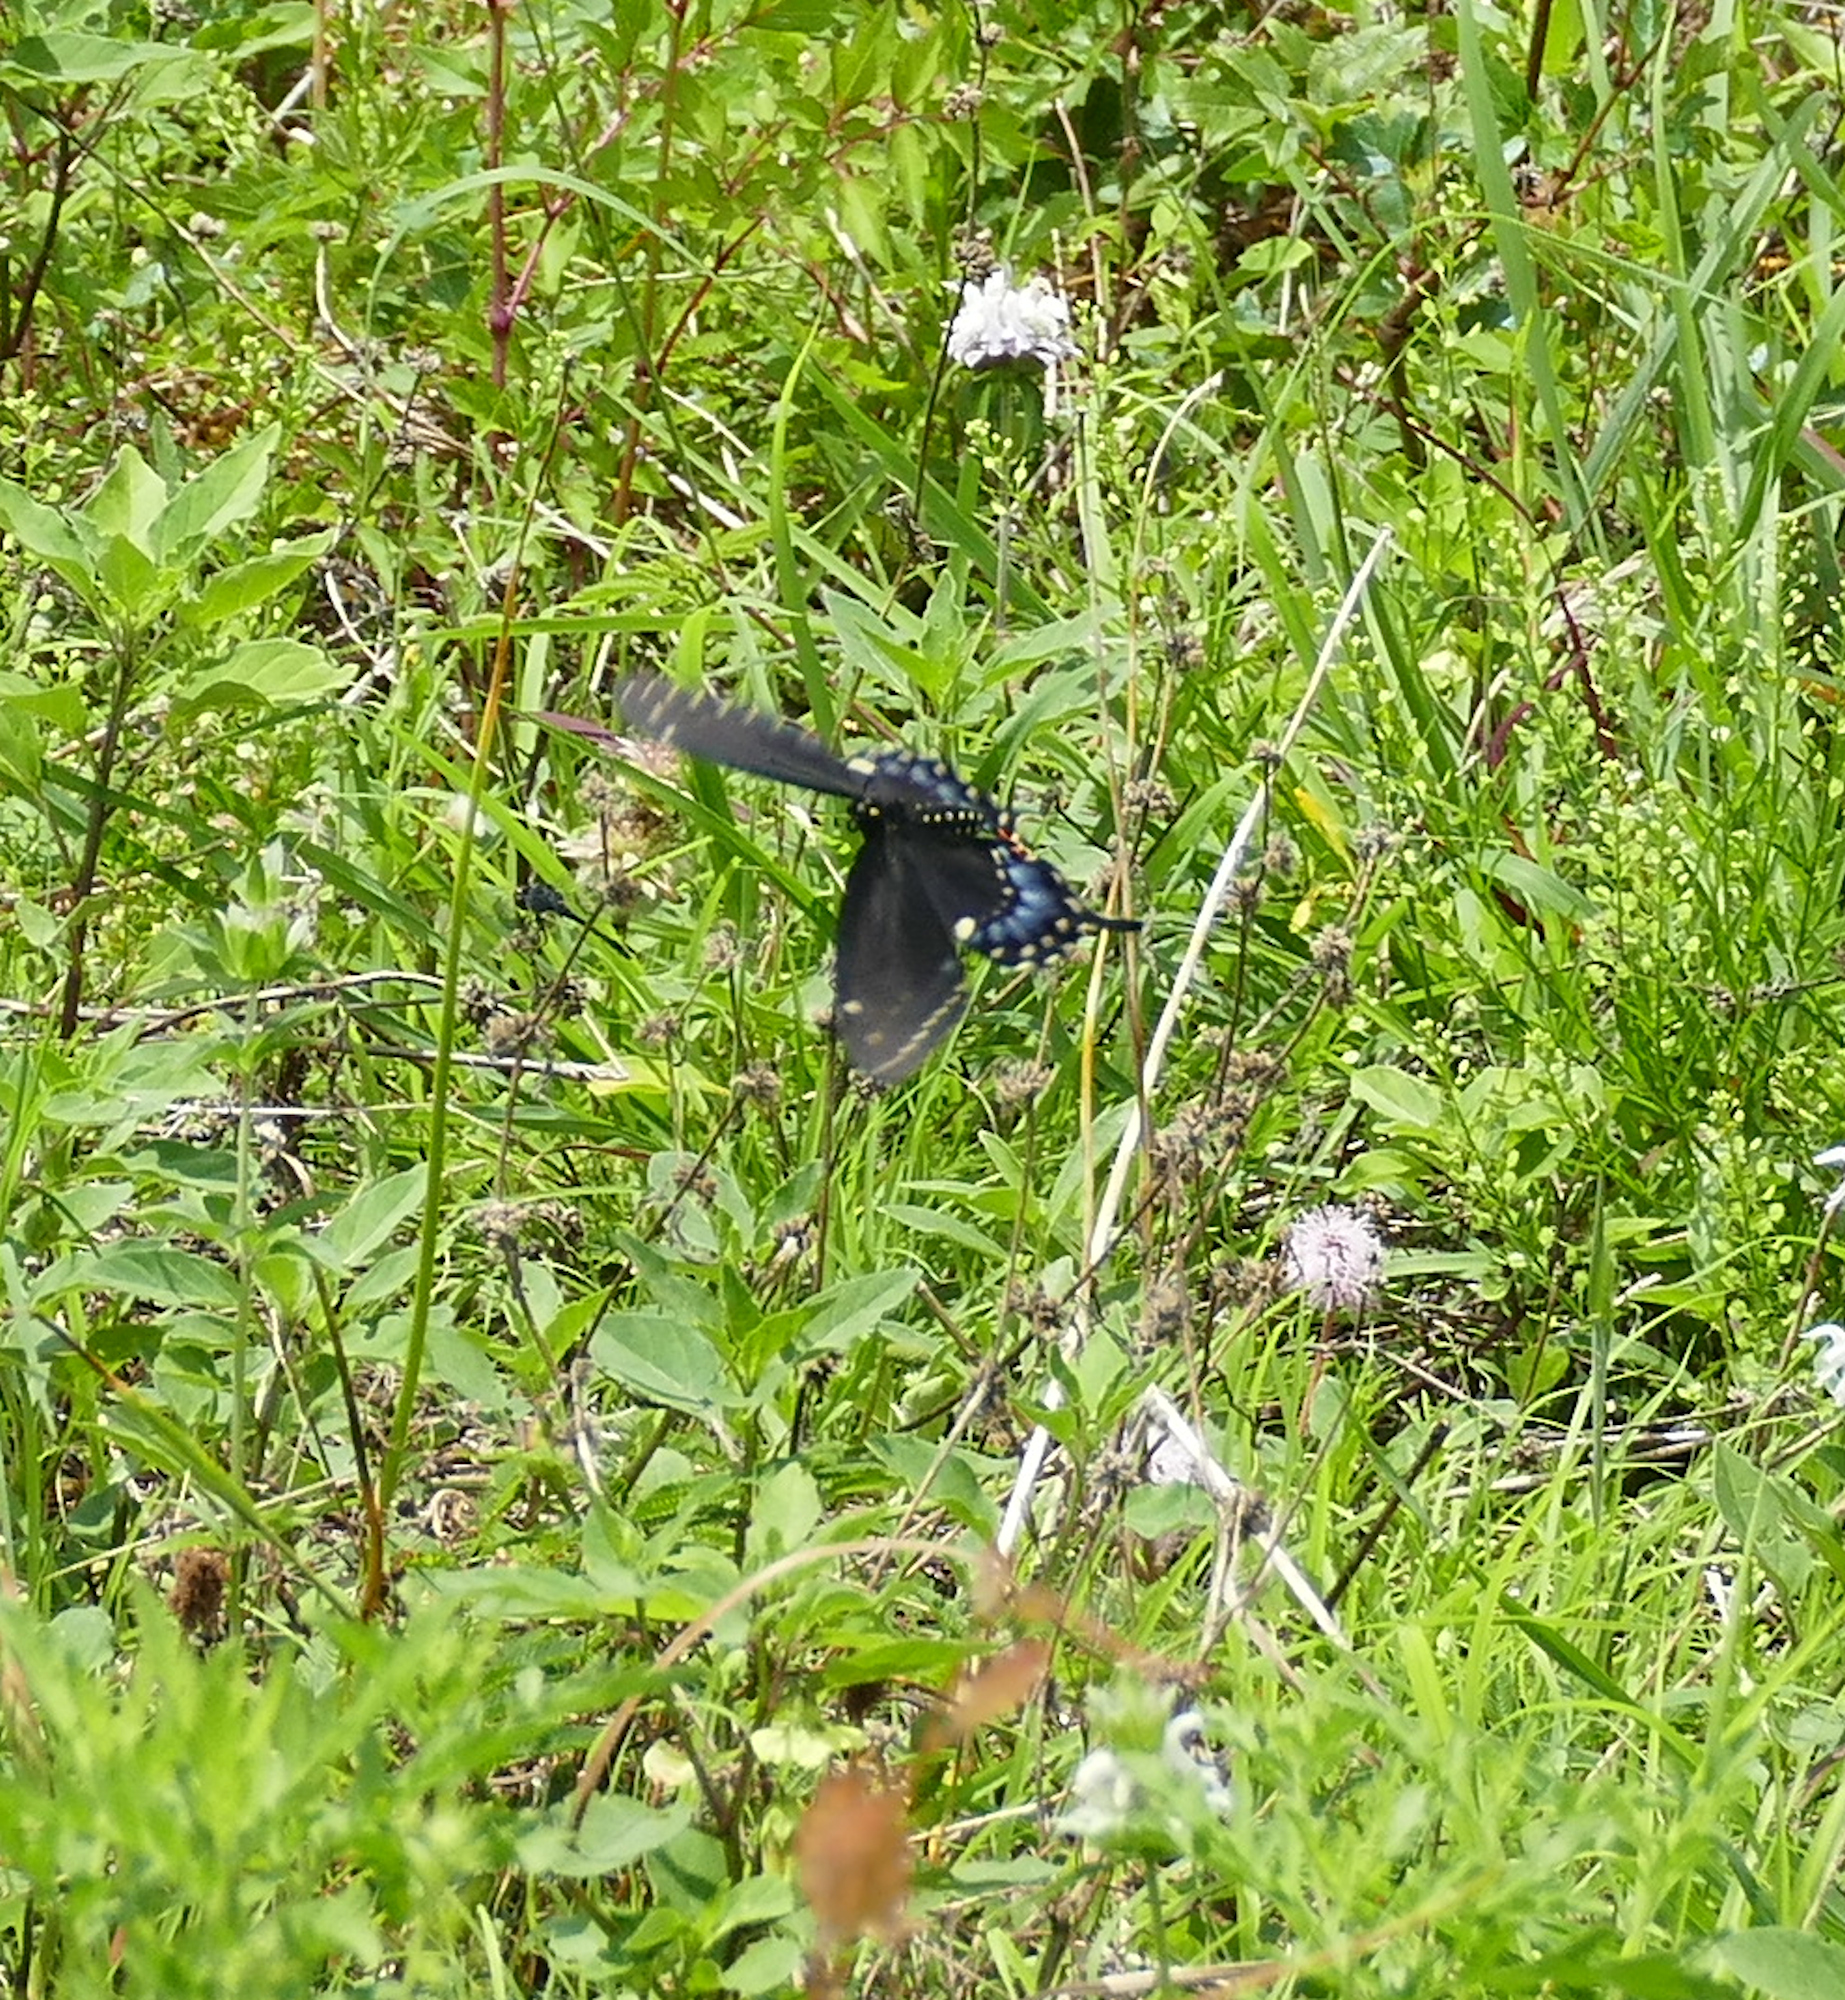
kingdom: Animalia
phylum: Arthropoda
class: Insecta
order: Lepidoptera
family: Papilionidae
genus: Papilio
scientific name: Papilio polyxenes
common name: Black swallowtail
